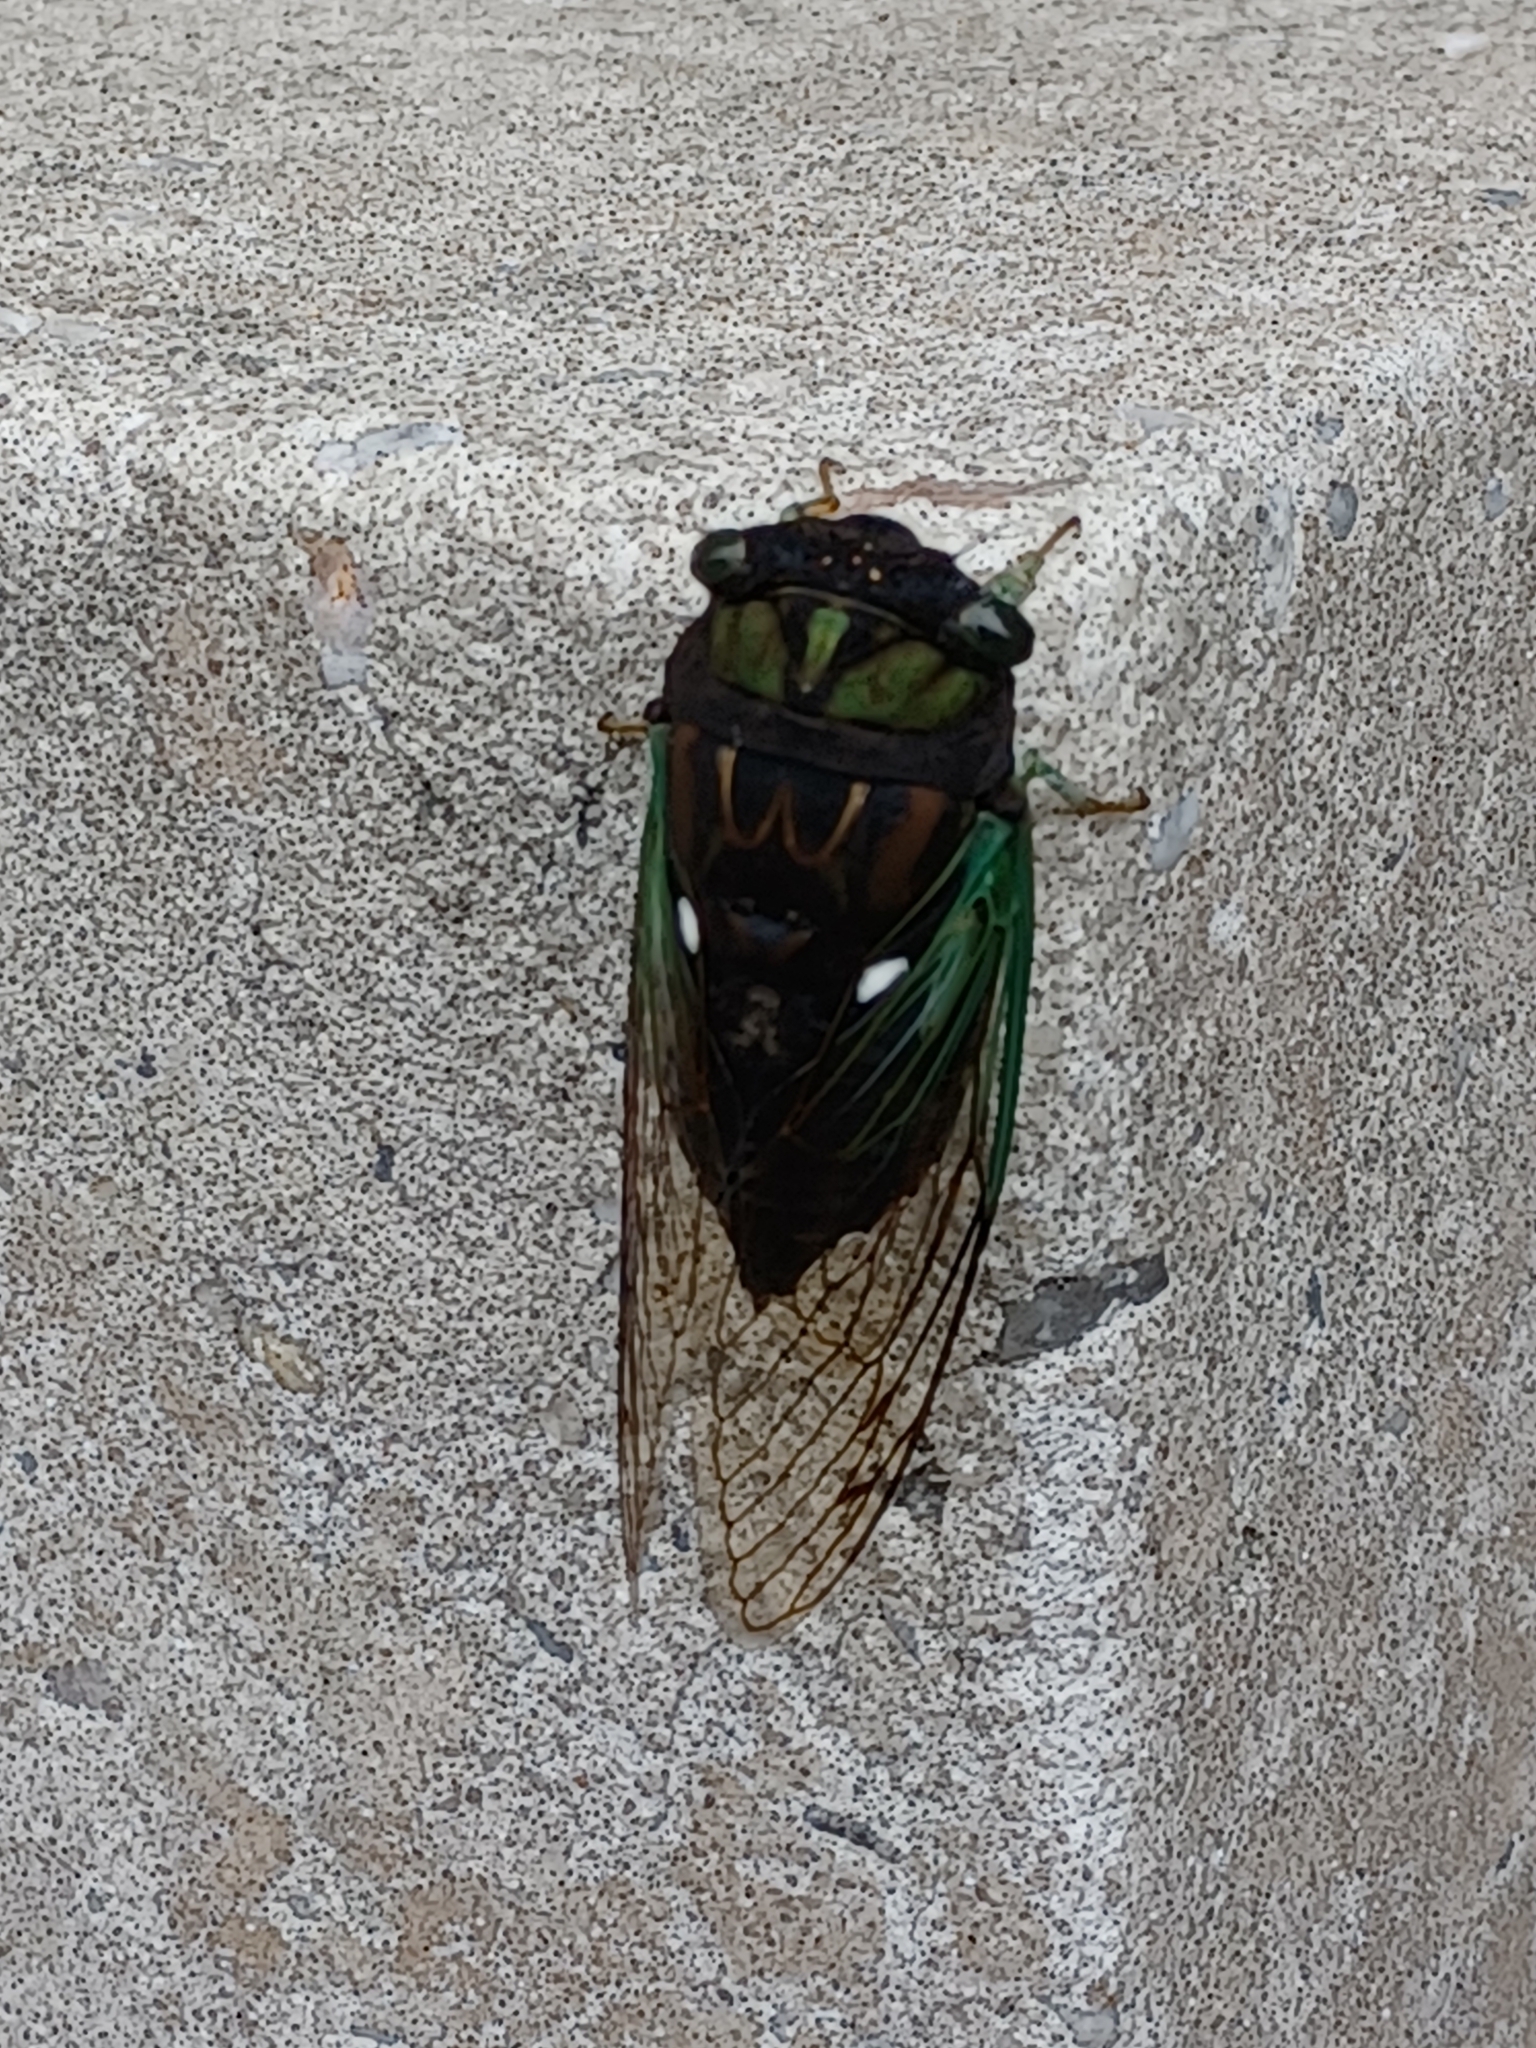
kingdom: Animalia
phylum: Arthropoda
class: Insecta
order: Hemiptera
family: Cicadidae
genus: Neotibicen
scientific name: Neotibicen tibicen
